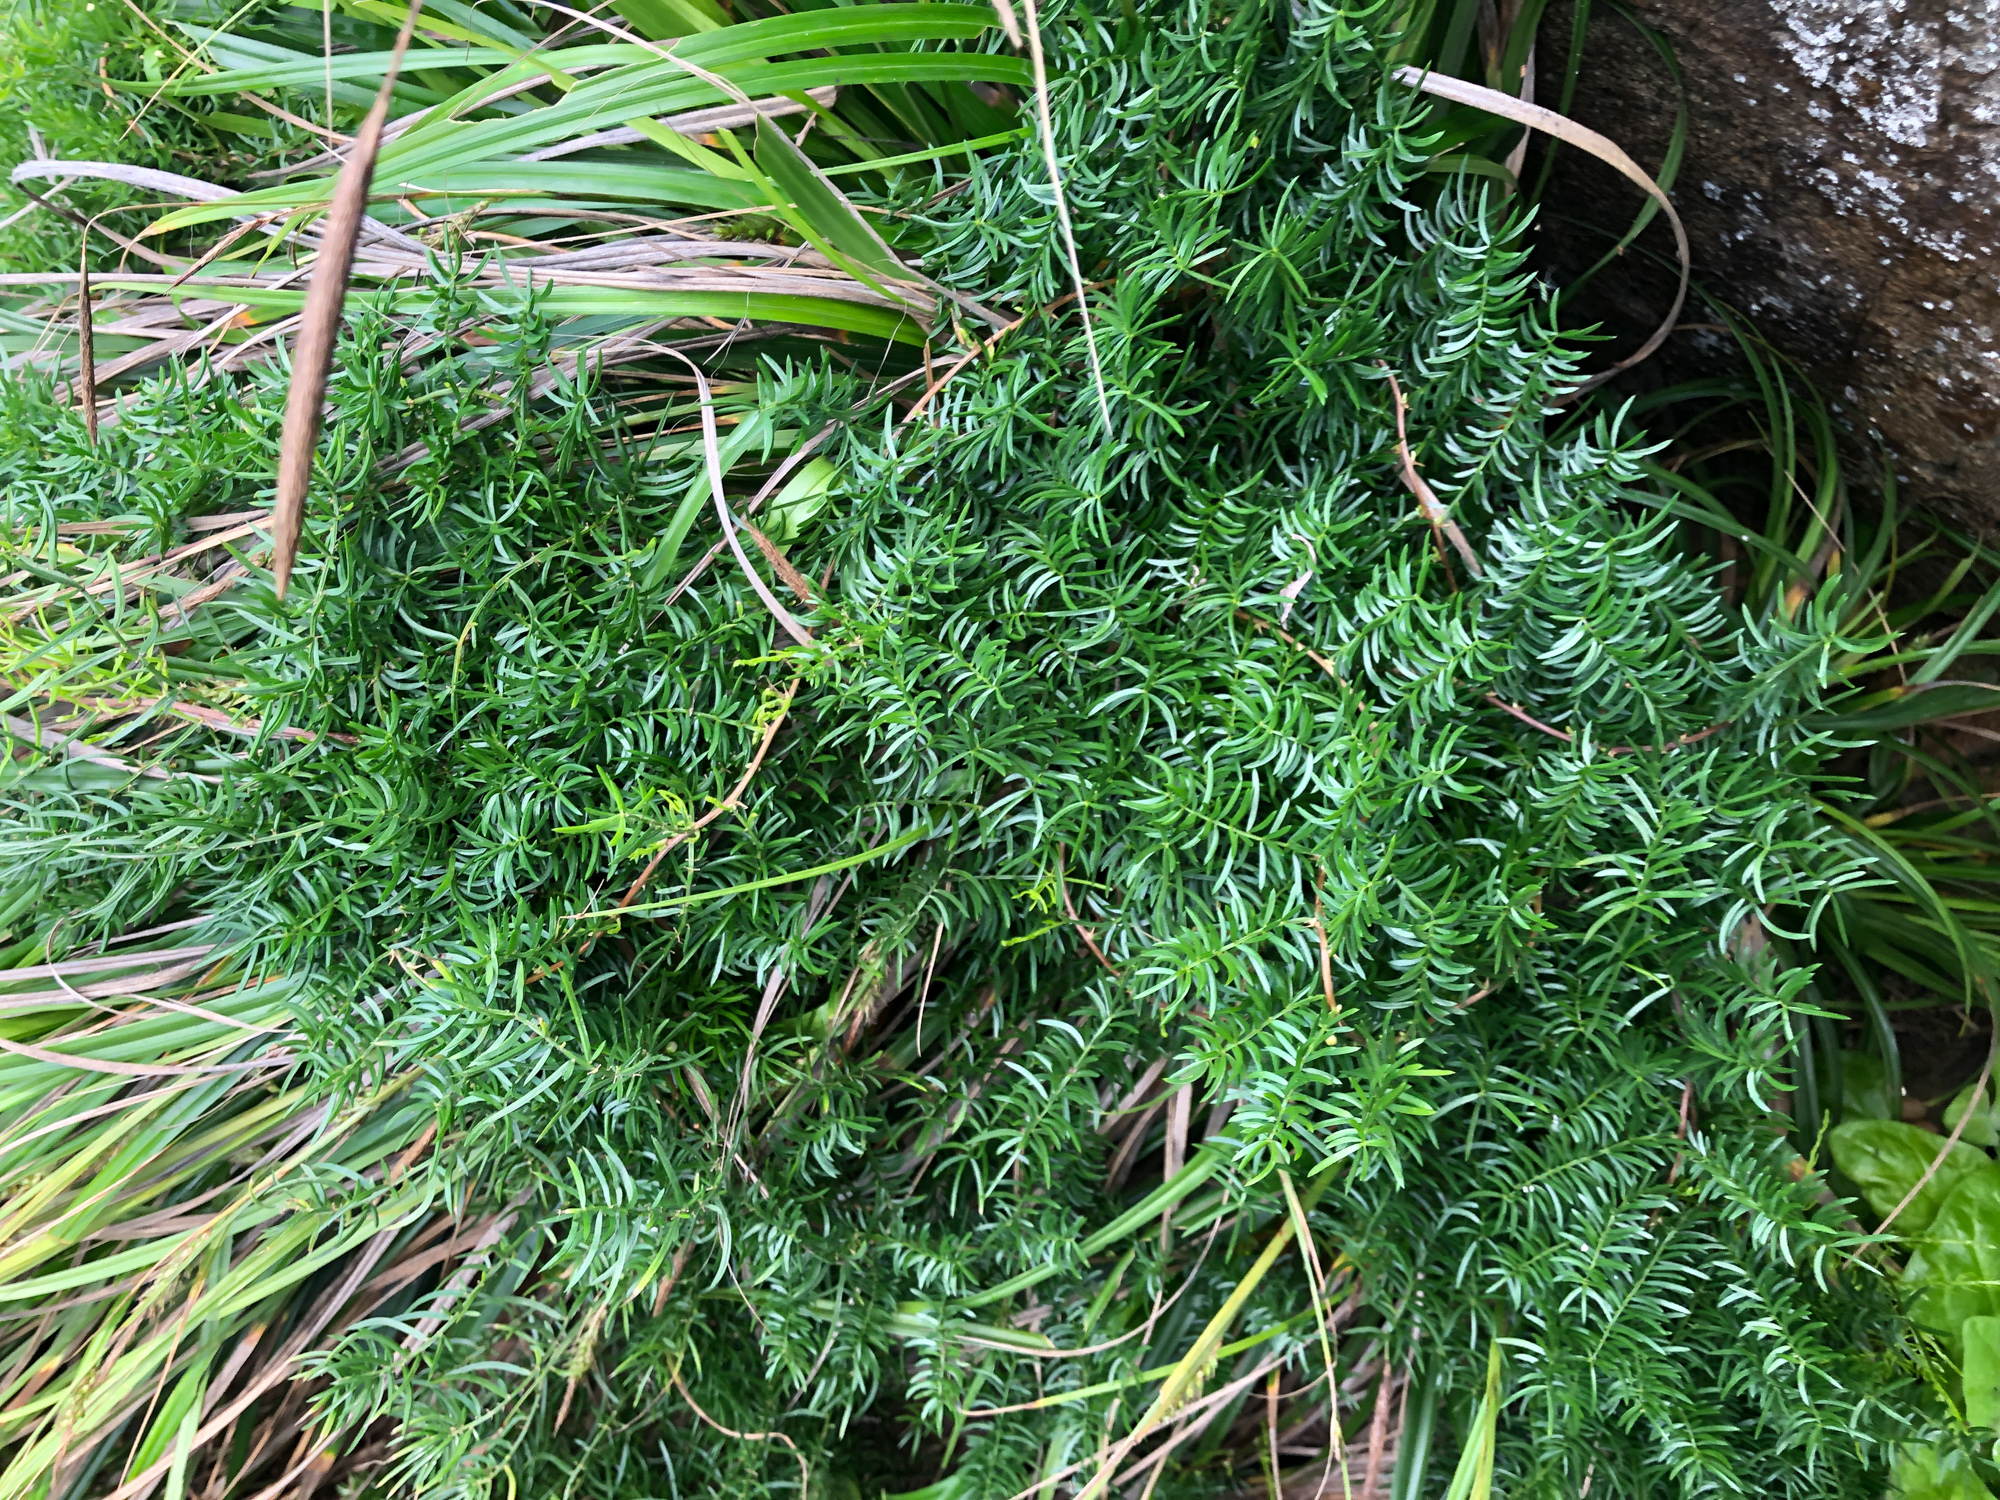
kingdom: Plantae
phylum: Tracheophyta
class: Liliopsida
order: Asparagales
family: Asparagaceae
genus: Asparagus
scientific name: Asparagus cochinchinensis
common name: Chinese asparagus
